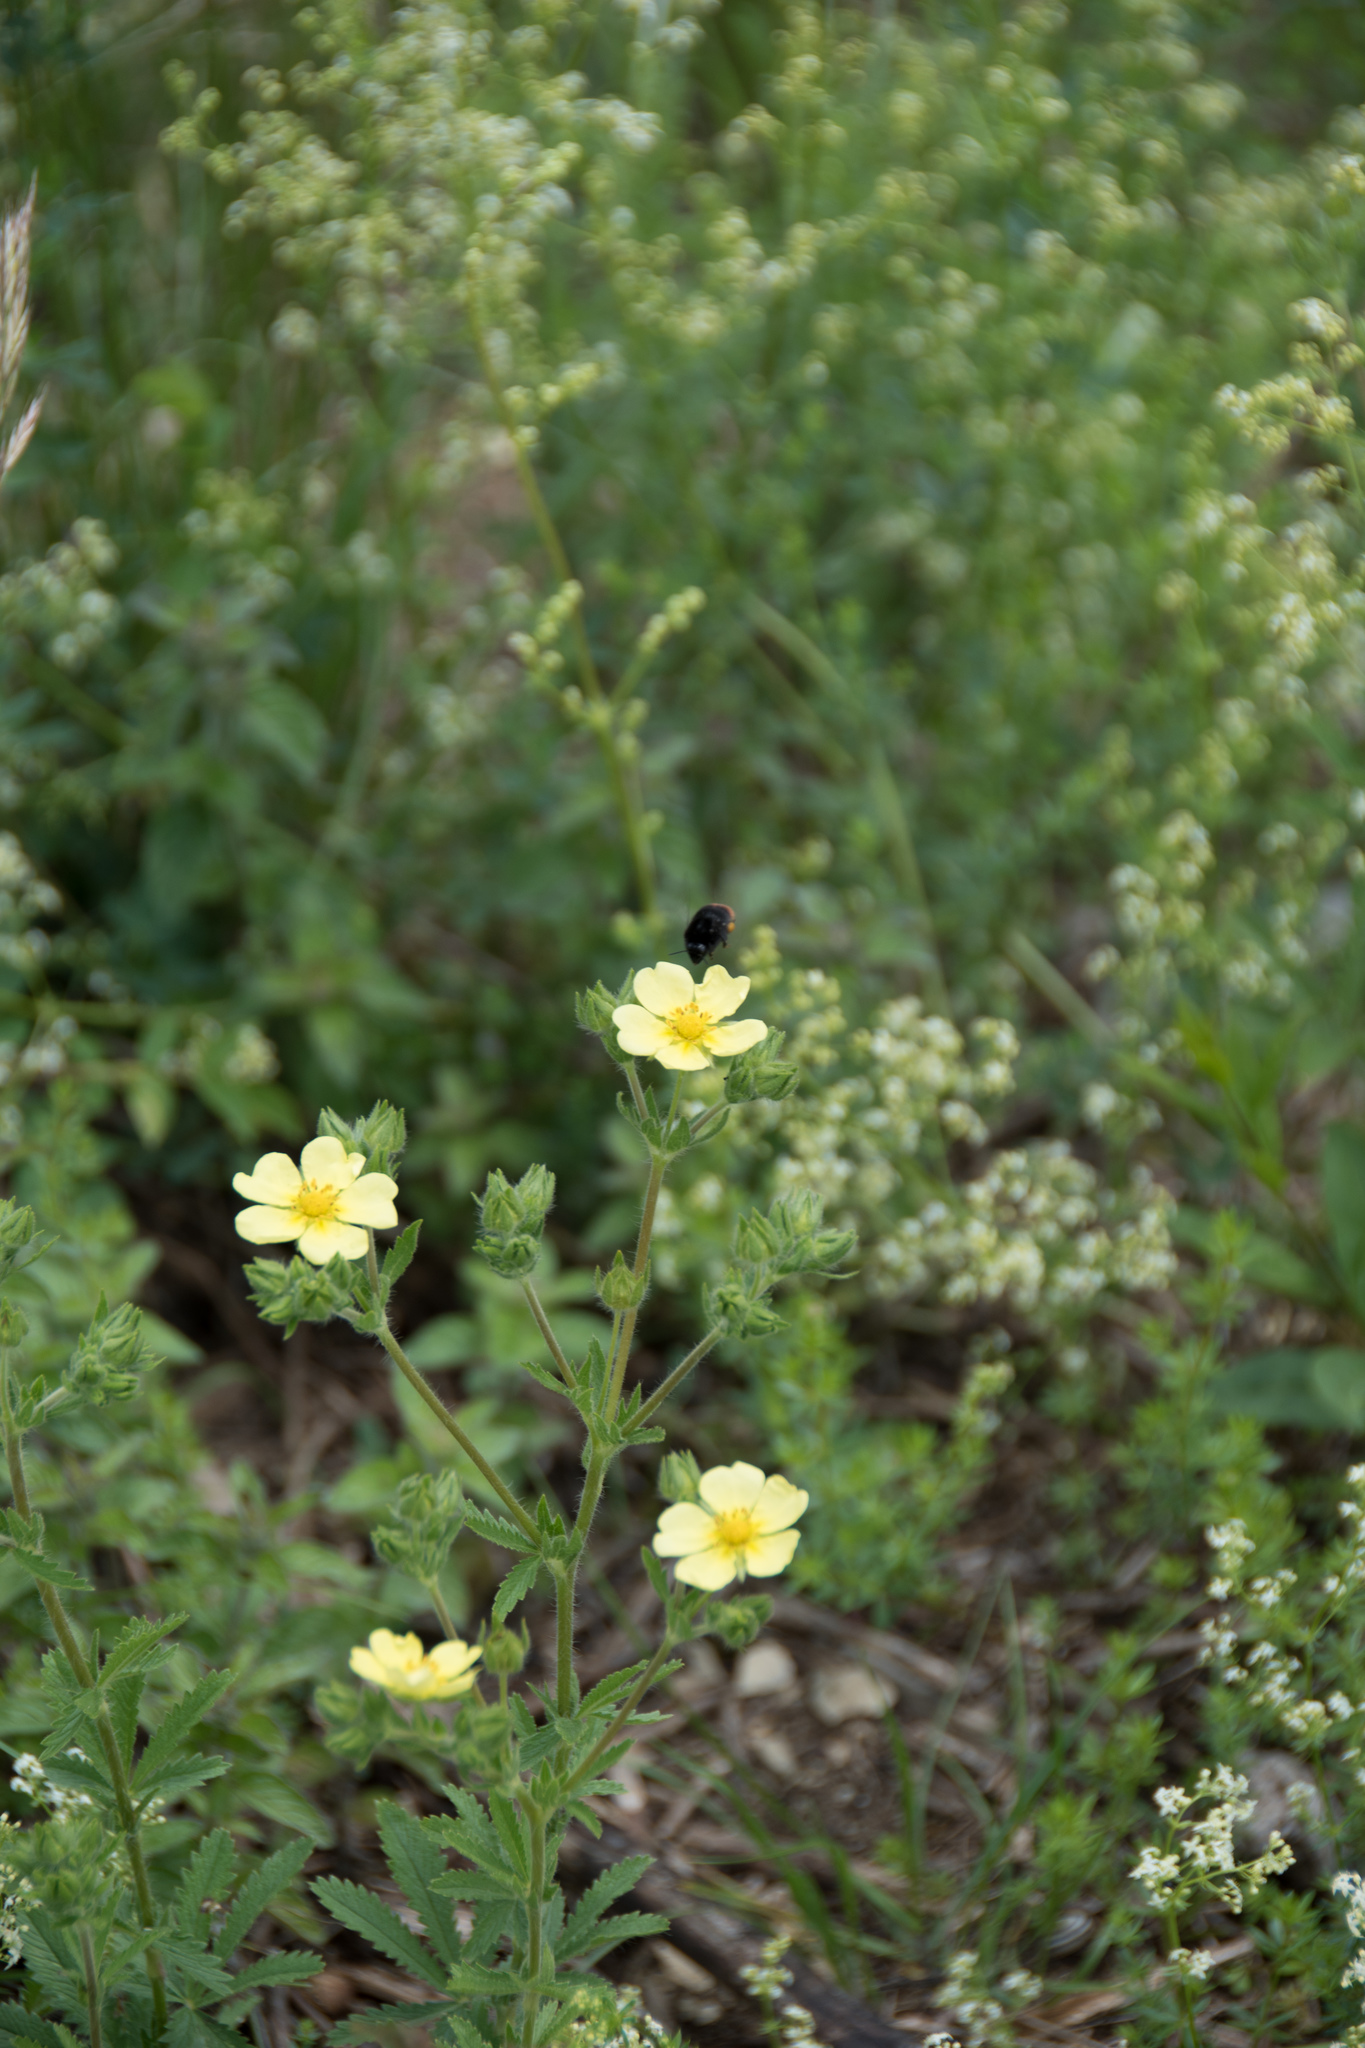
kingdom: Plantae
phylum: Tracheophyta
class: Magnoliopsida
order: Rosales
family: Rosaceae
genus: Potentilla
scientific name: Potentilla recta
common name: Sulphur cinquefoil
